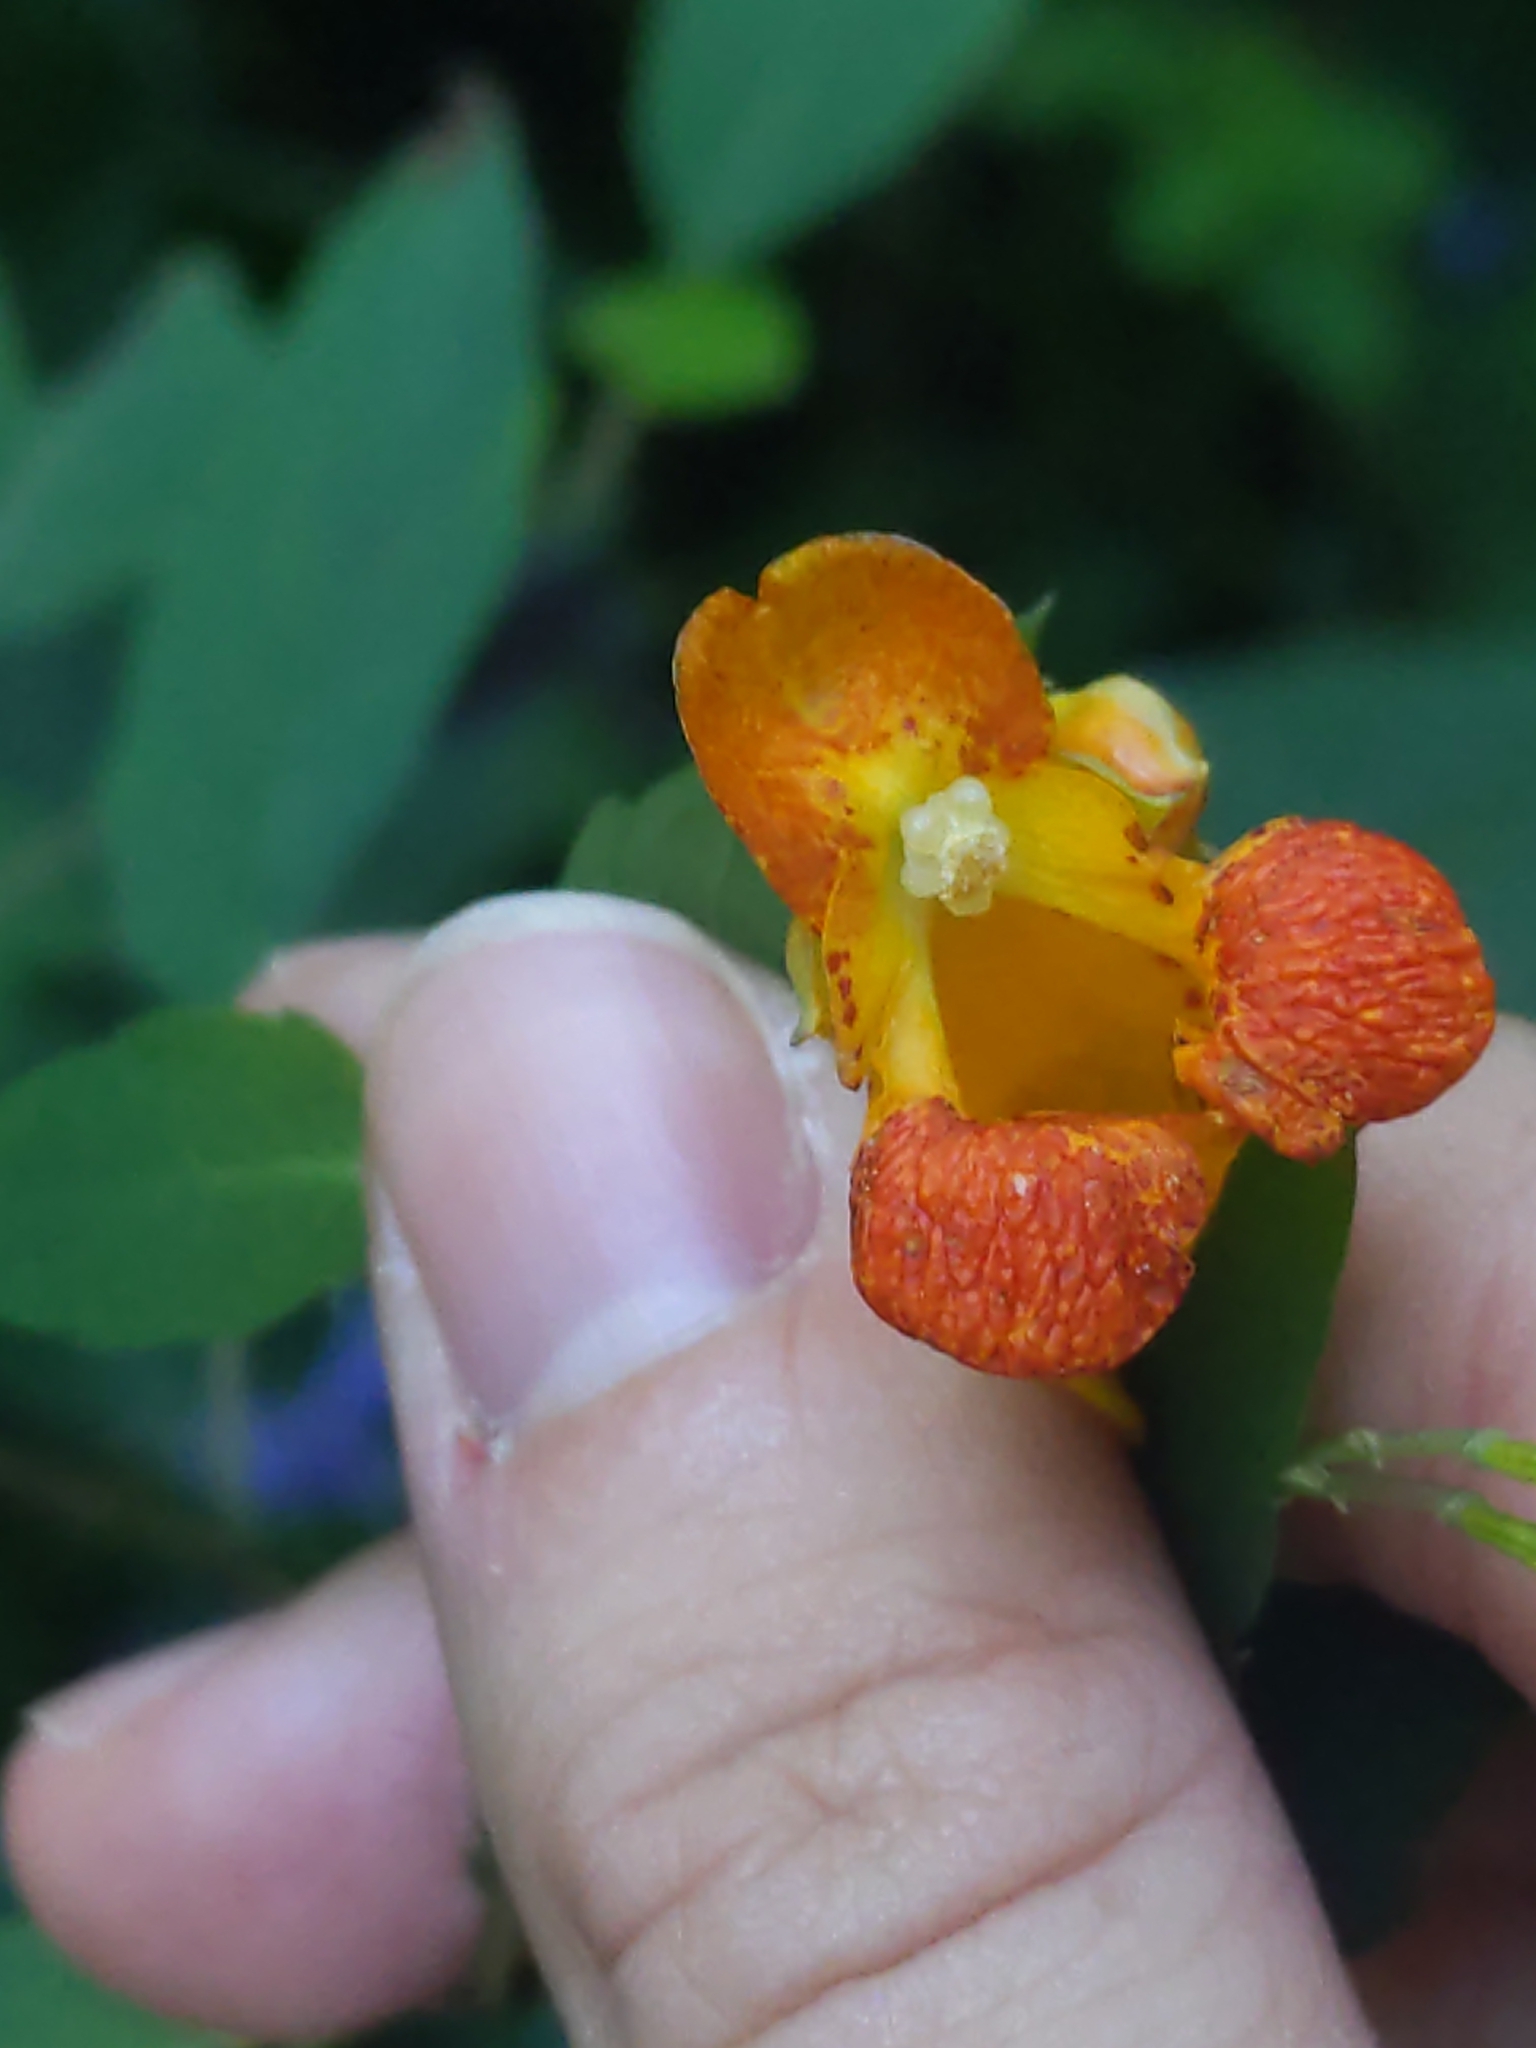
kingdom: Plantae
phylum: Tracheophyta
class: Magnoliopsida
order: Ericales
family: Balsaminaceae
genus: Impatiens
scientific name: Impatiens capensis
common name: Orange balsam
